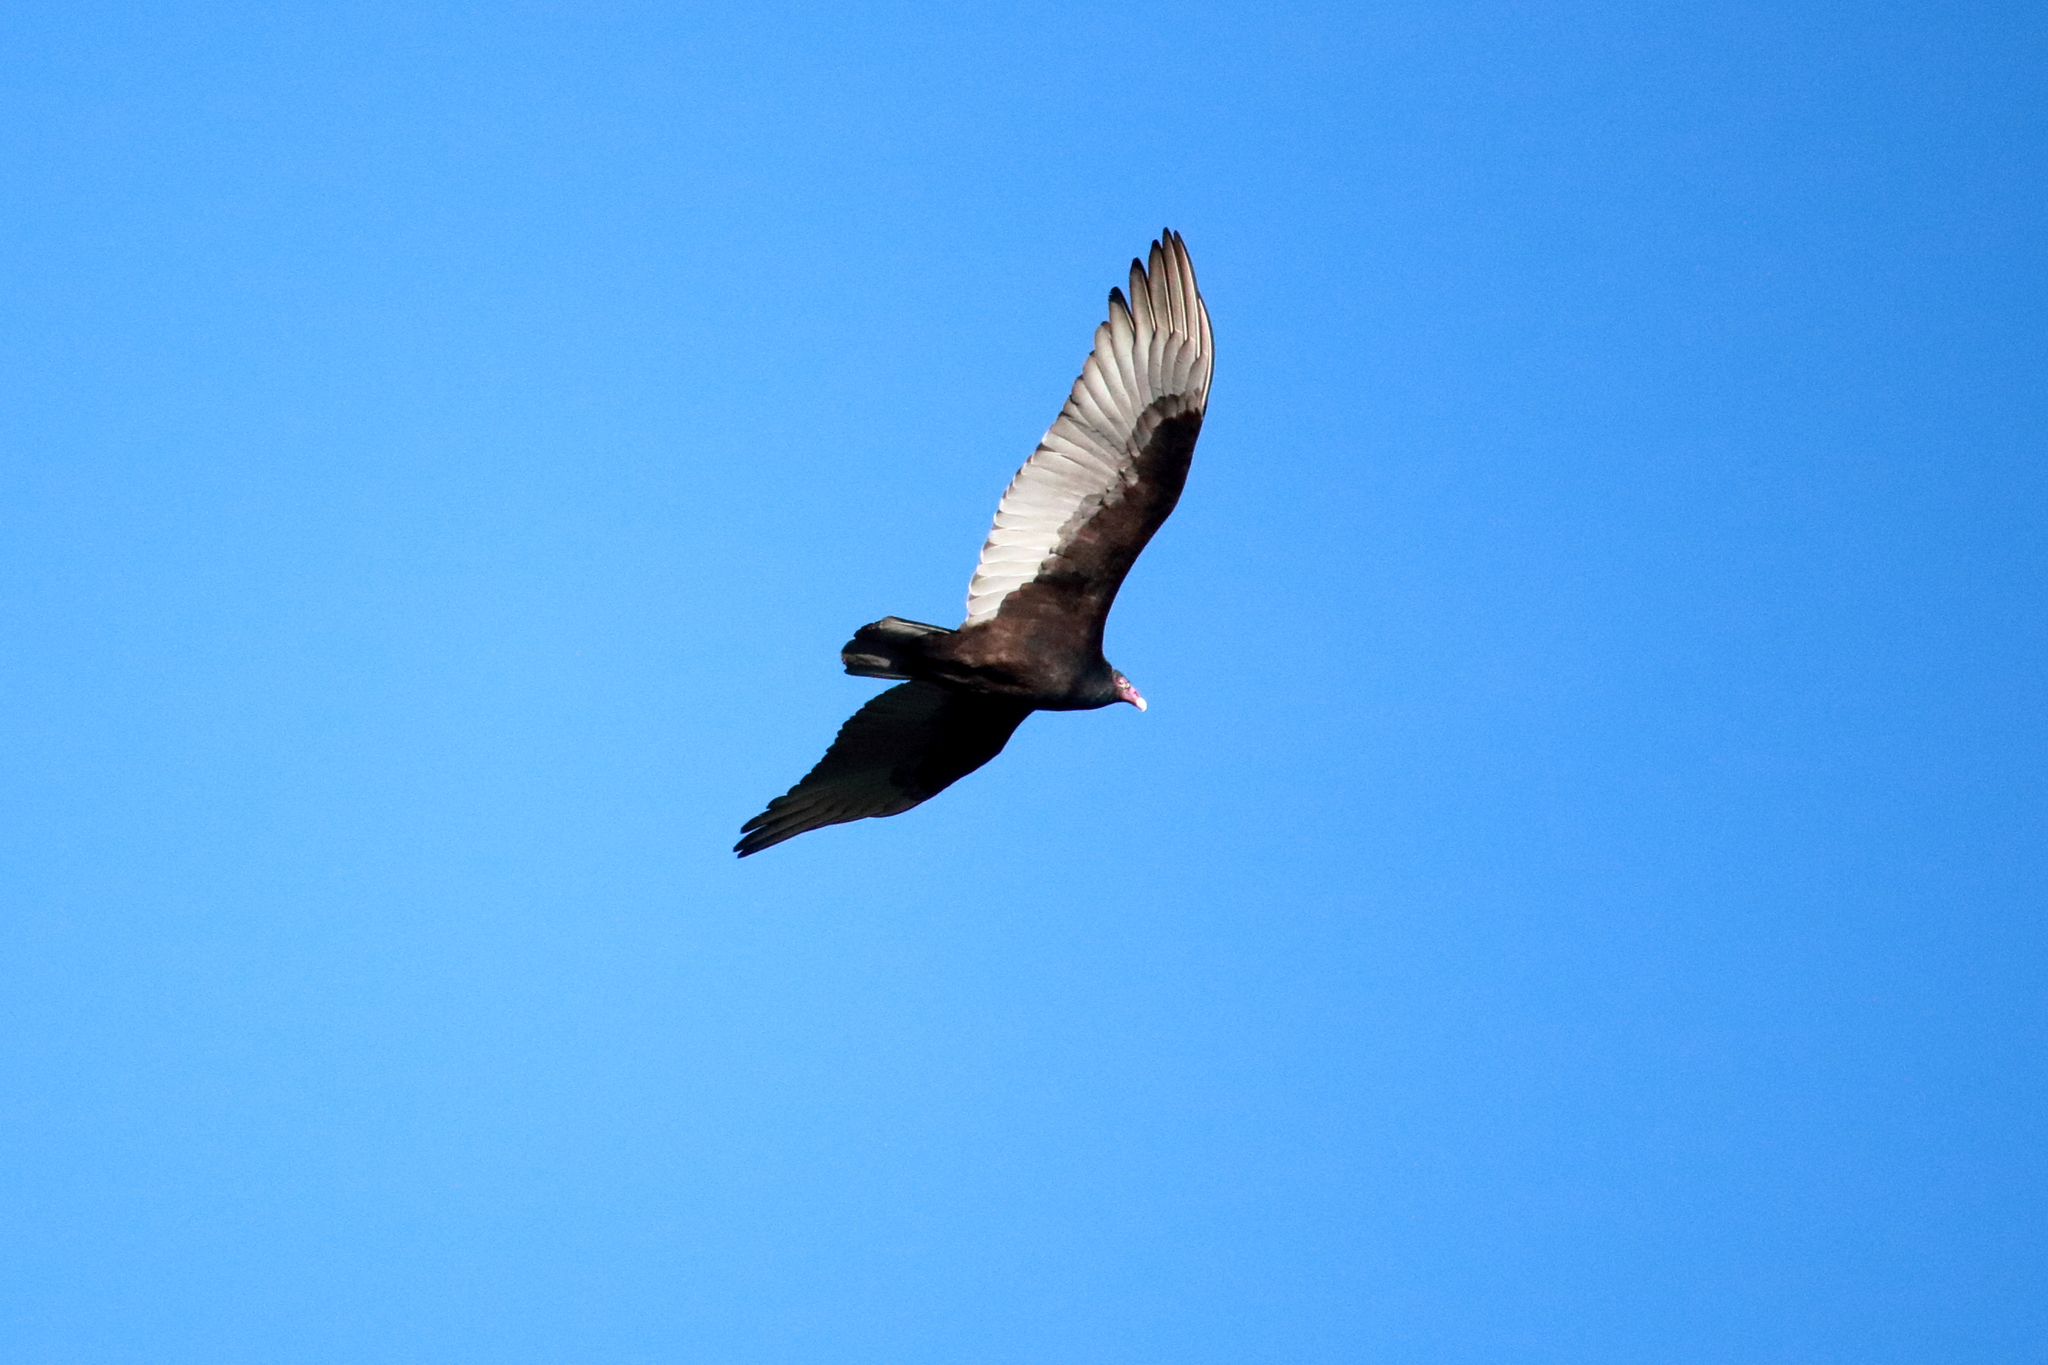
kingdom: Animalia
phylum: Chordata
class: Aves
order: Accipitriformes
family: Cathartidae
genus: Cathartes
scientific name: Cathartes aura
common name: Turkey vulture
